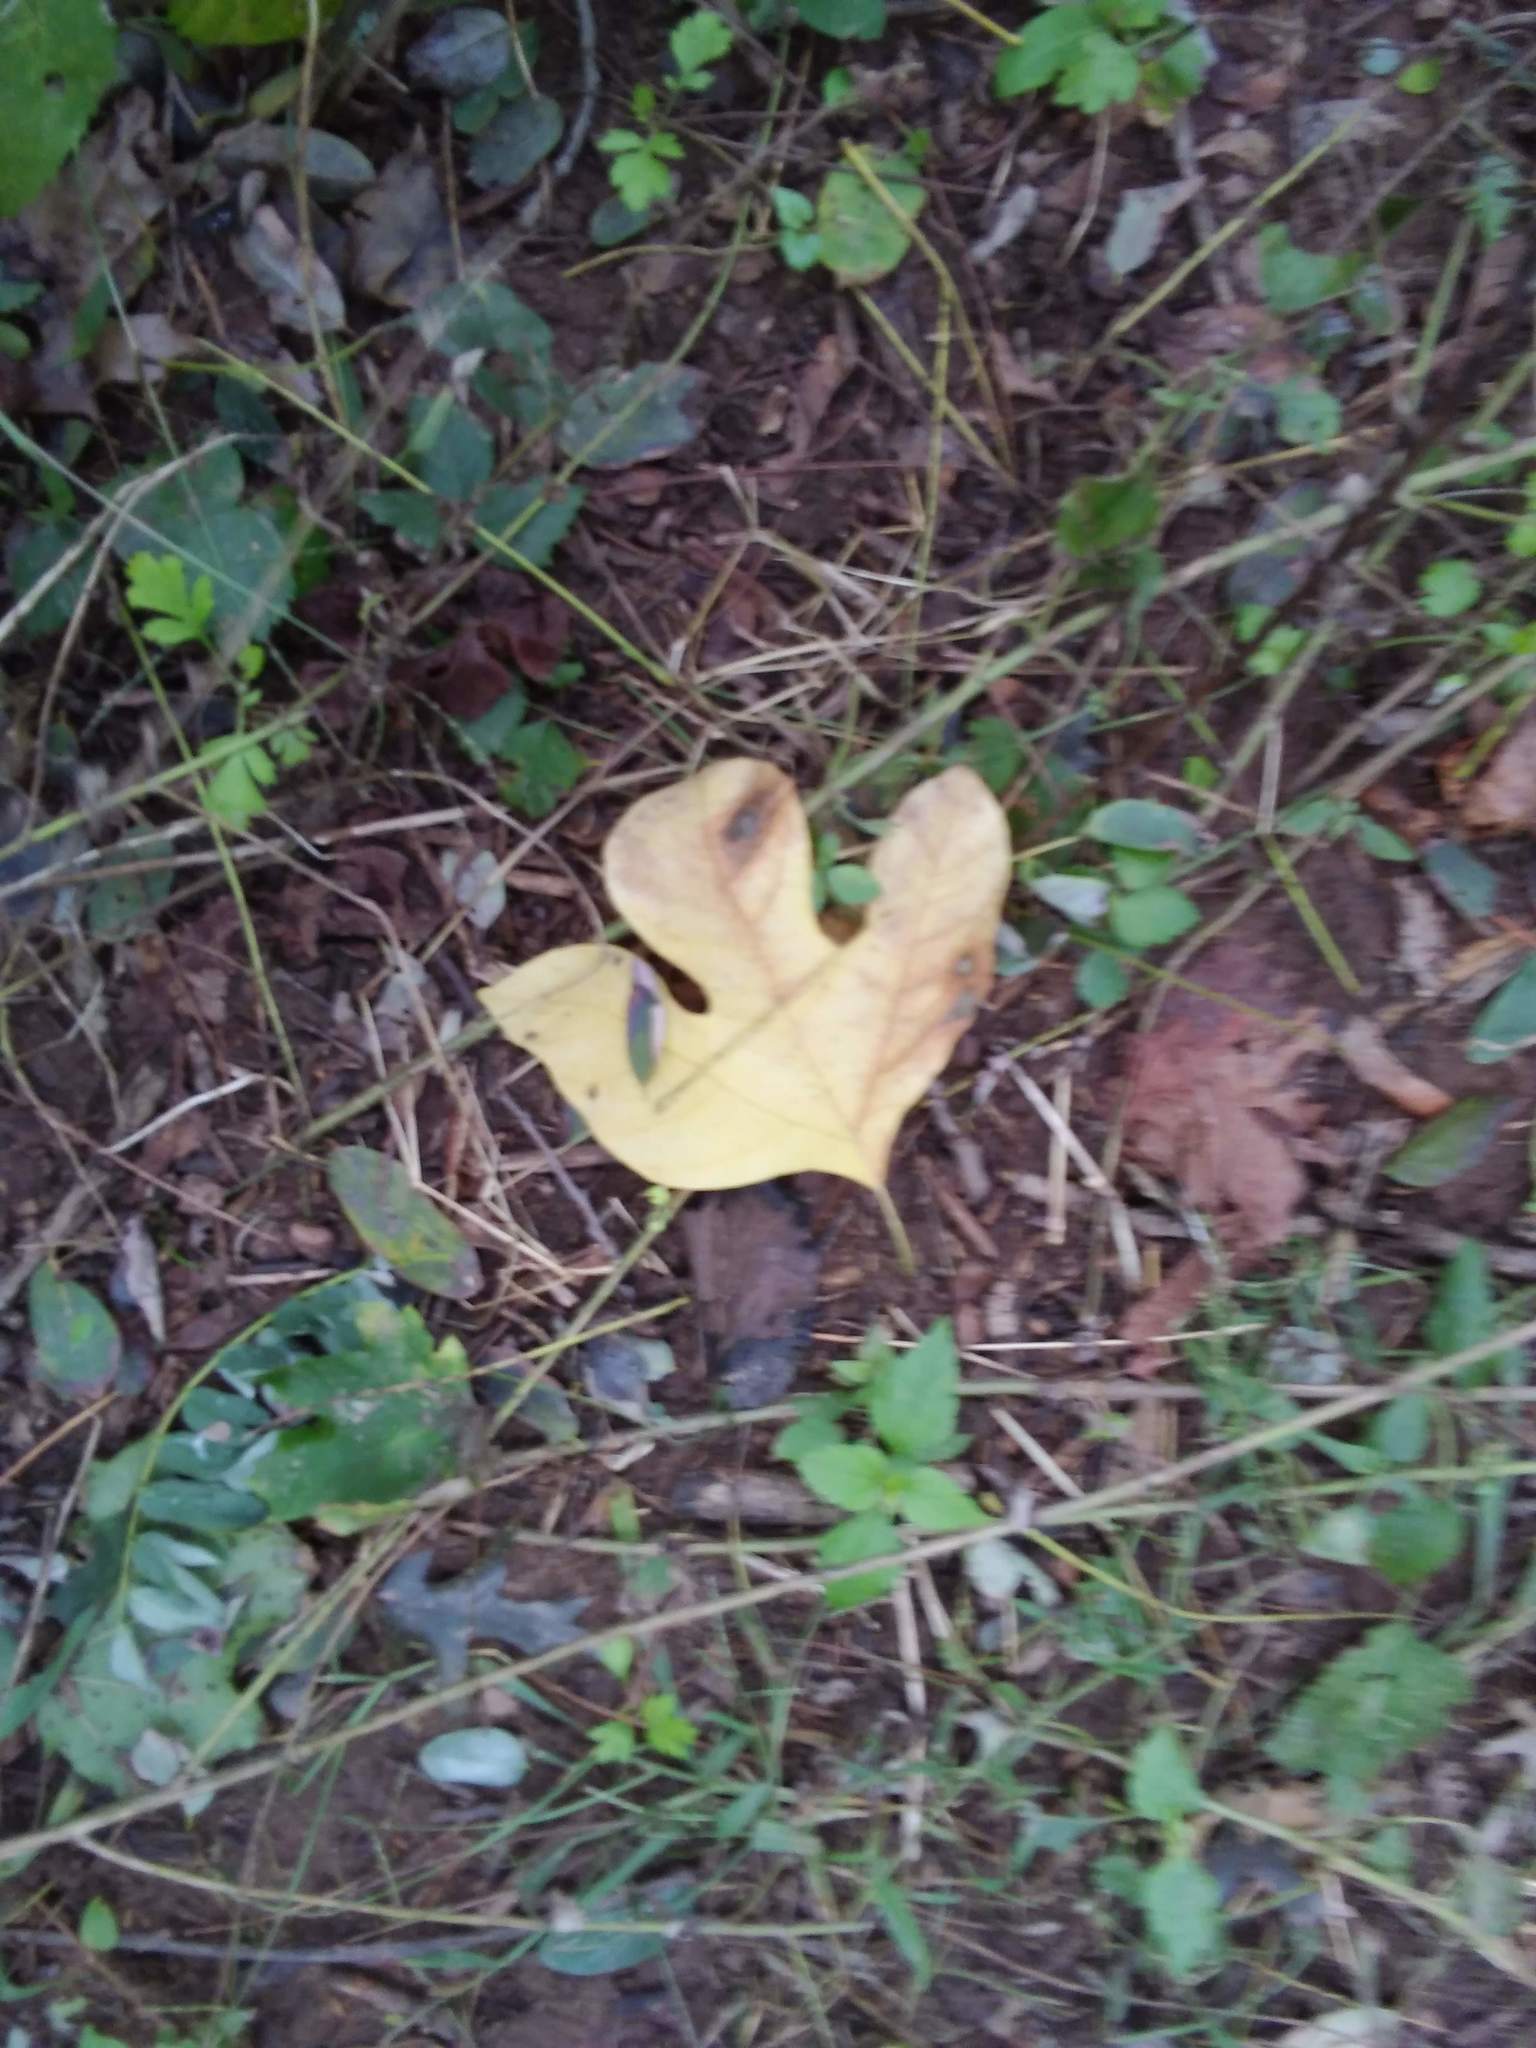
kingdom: Plantae
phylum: Tracheophyta
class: Magnoliopsida
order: Laurales
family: Lauraceae
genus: Sassafras
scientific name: Sassafras albidum
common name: Sassafras
